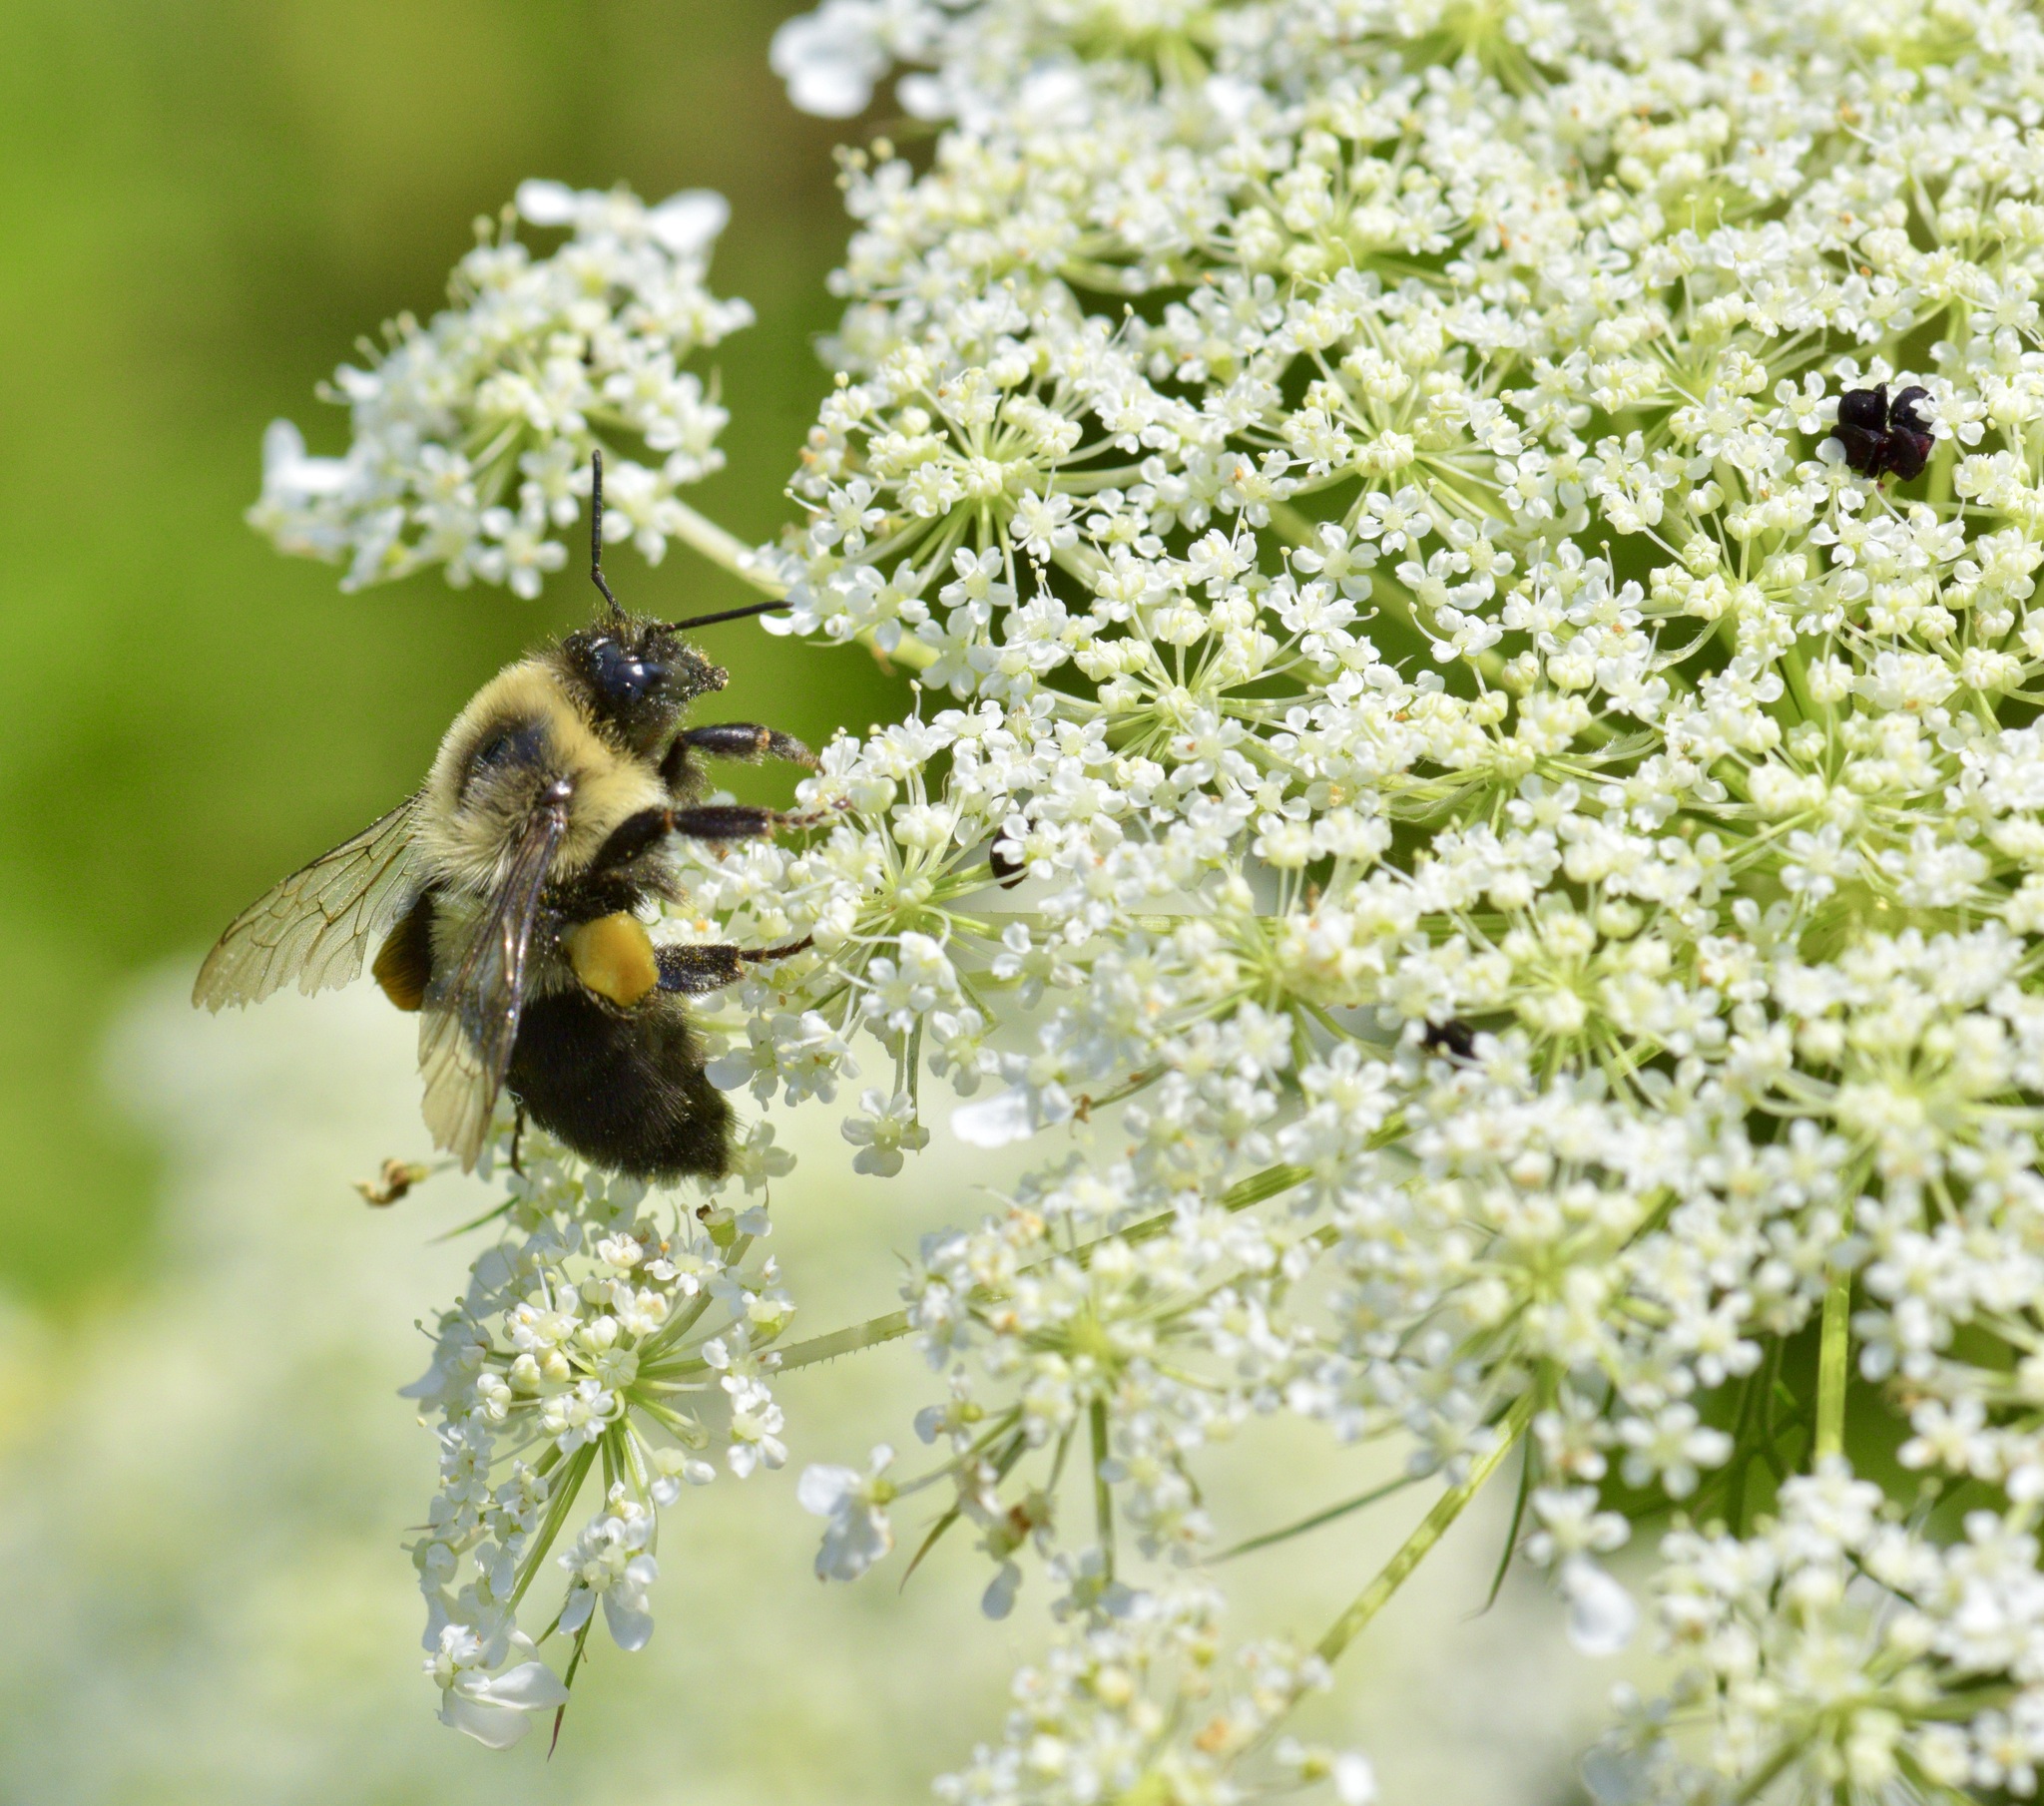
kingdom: Animalia
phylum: Arthropoda
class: Insecta
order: Hymenoptera
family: Apidae
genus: Bombus
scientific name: Bombus impatiens
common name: Common eastern bumble bee
